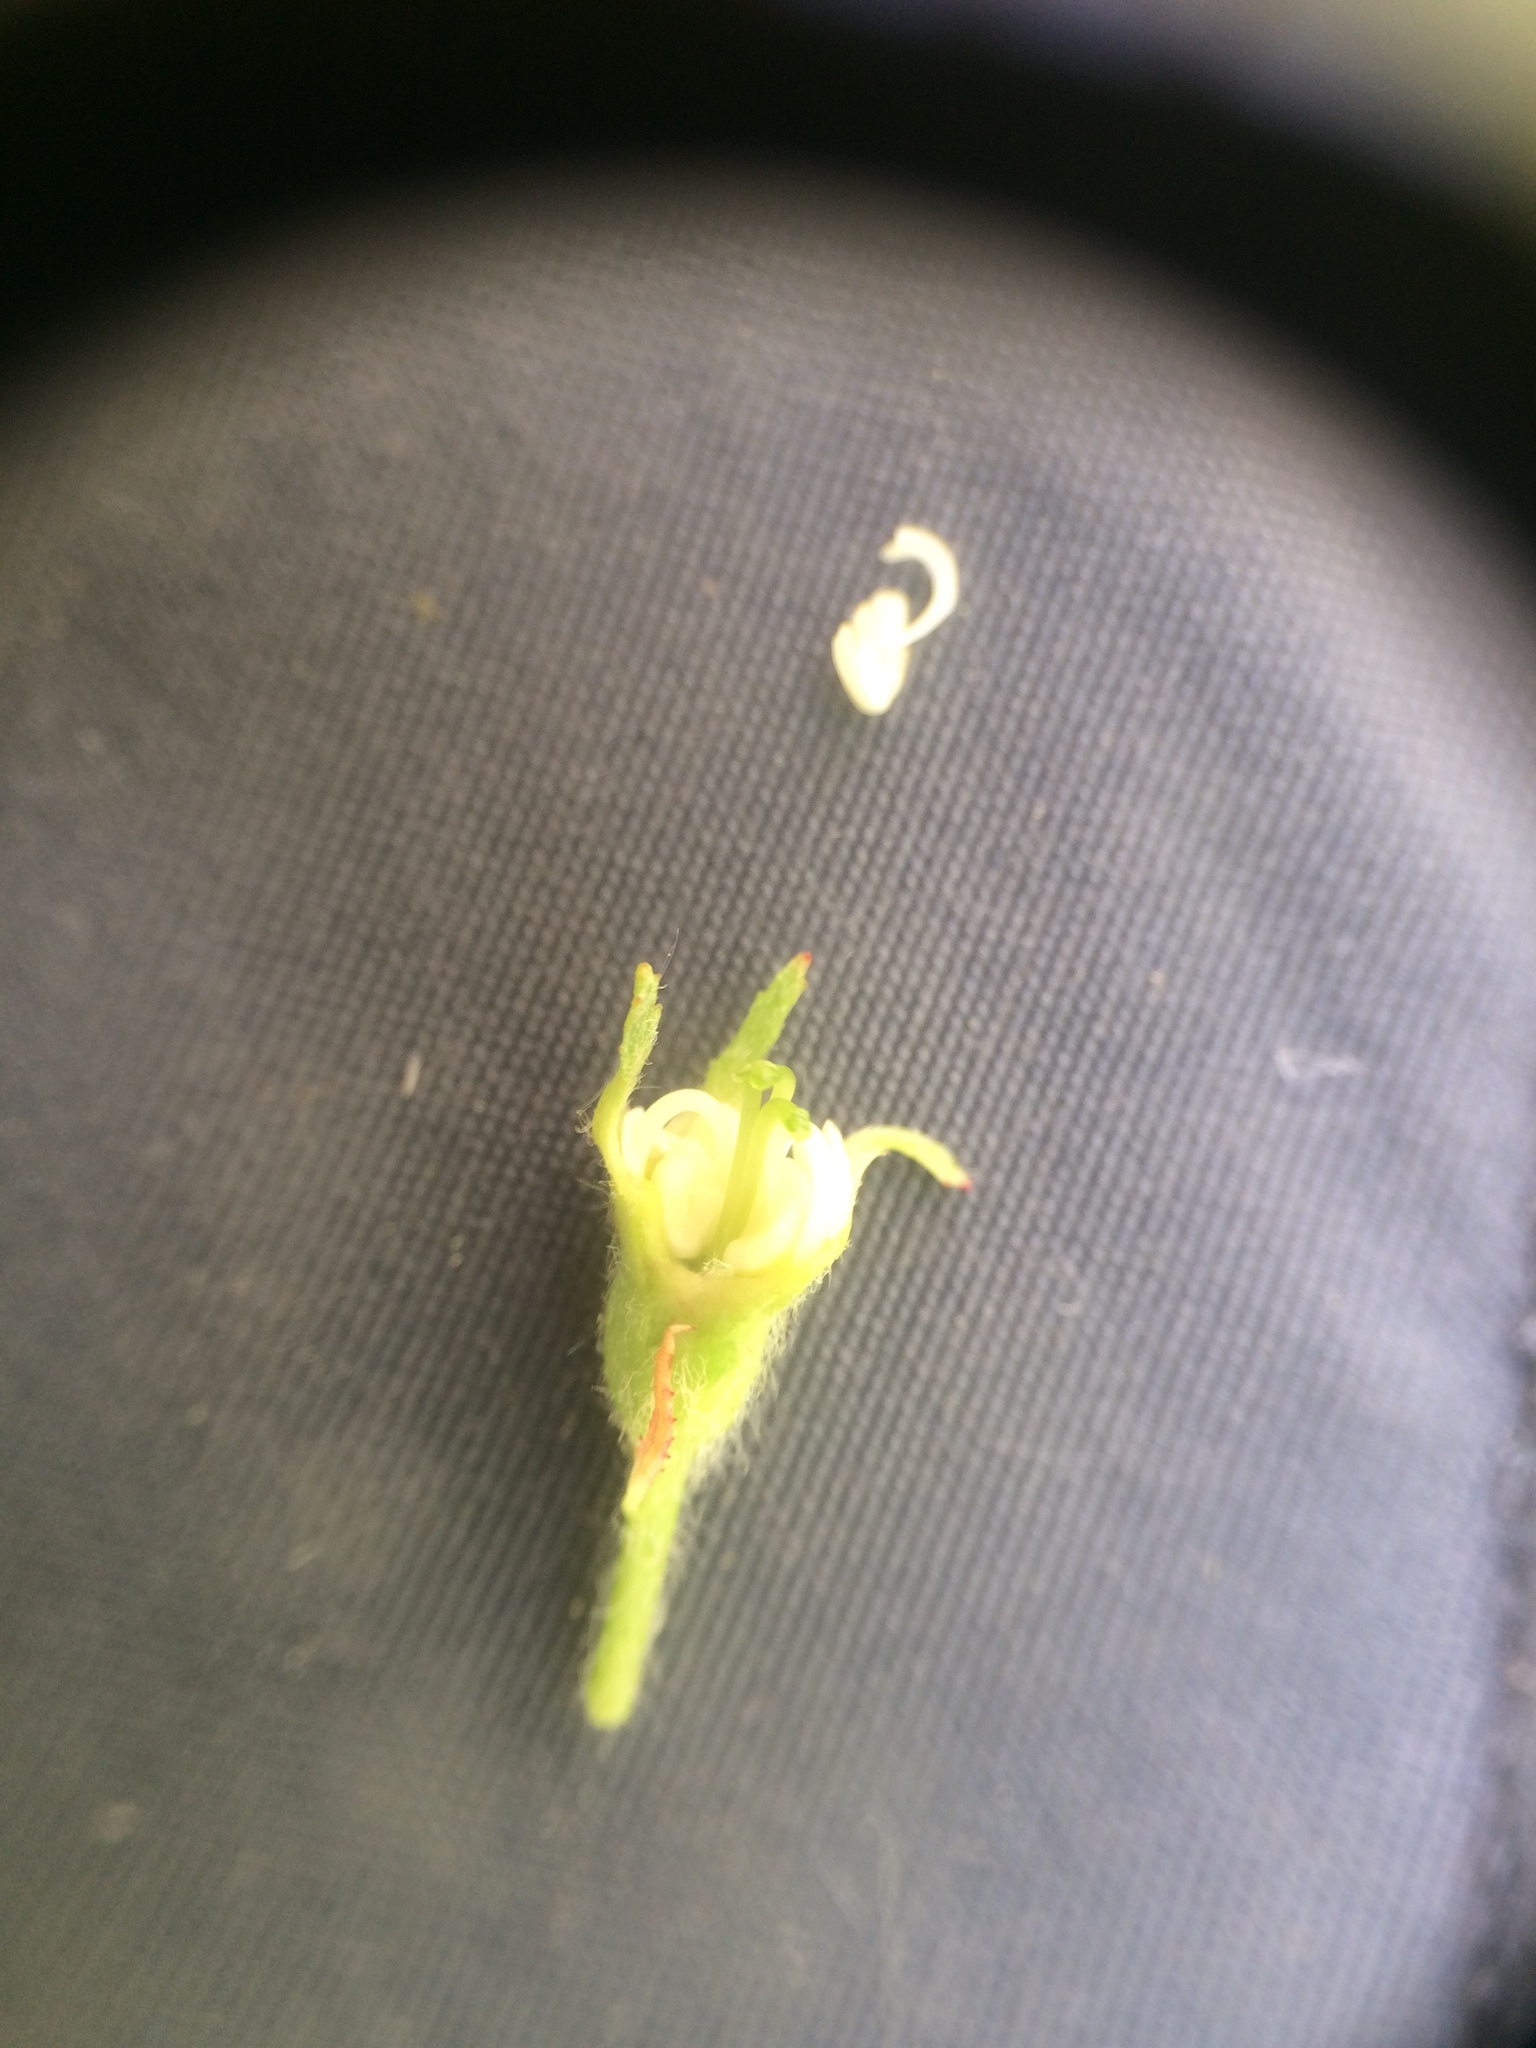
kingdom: Plantae
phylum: Tracheophyta
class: Magnoliopsida
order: Rosales
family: Rosaceae
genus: Crataegus
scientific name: Crataegus chrysocarpa
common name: Fire-berry hawthorn
